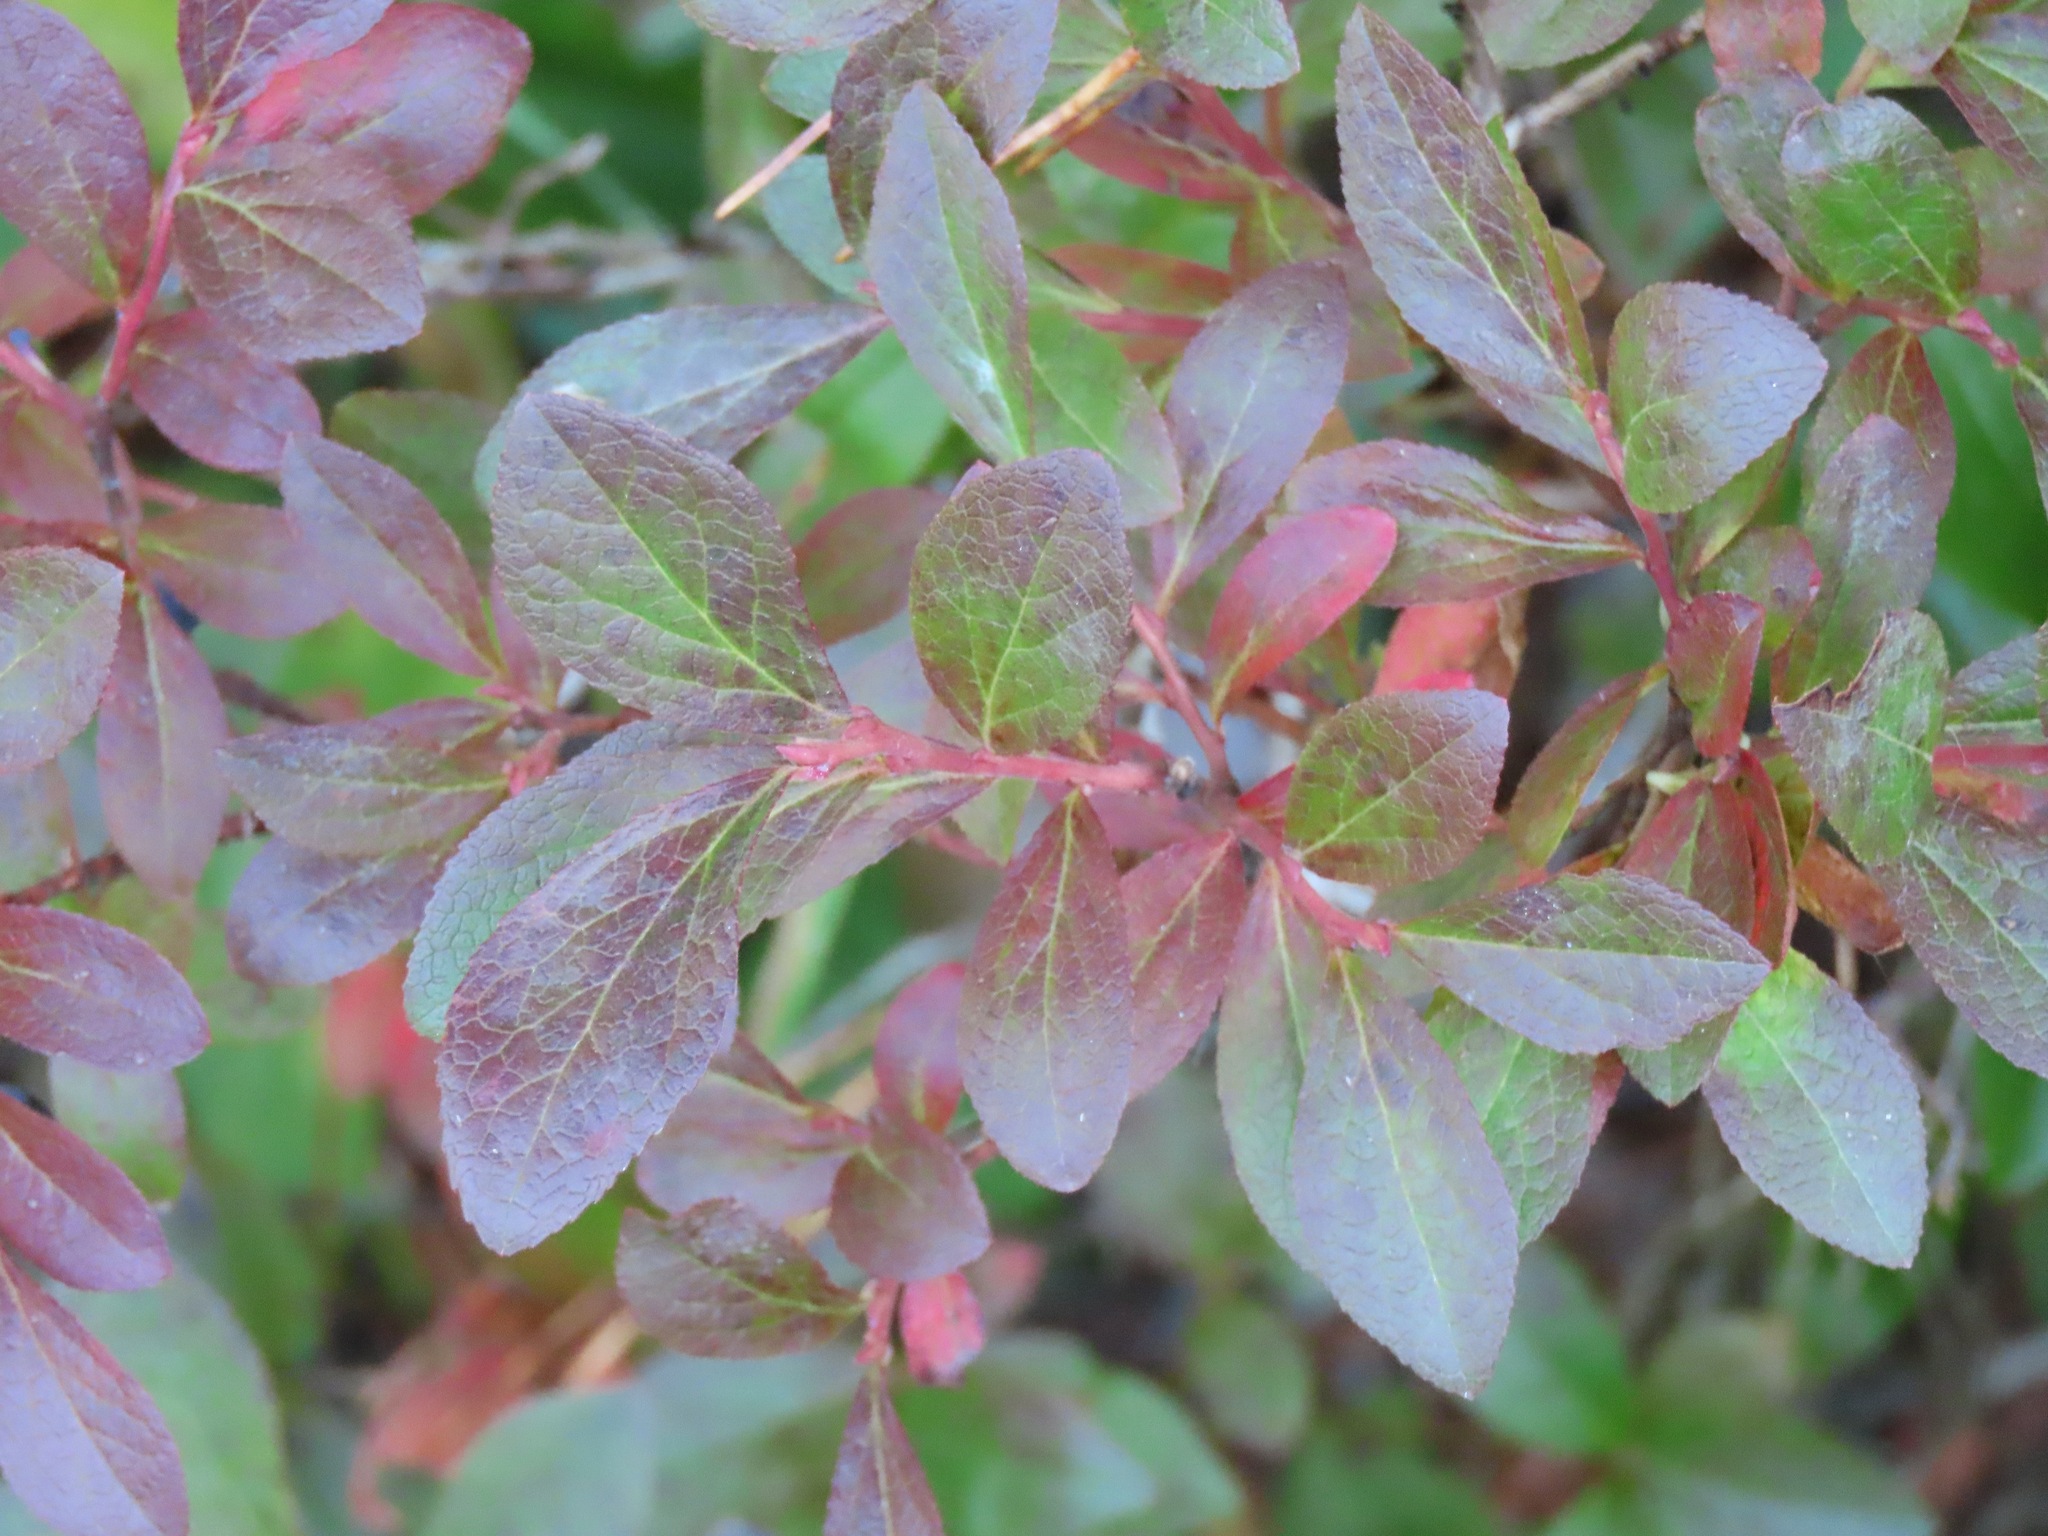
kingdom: Plantae
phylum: Tracheophyta
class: Magnoliopsida
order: Ericales
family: Ericaceae
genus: Vaccinium
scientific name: Vaccinium cespitosum
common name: Dwarf bilberry
